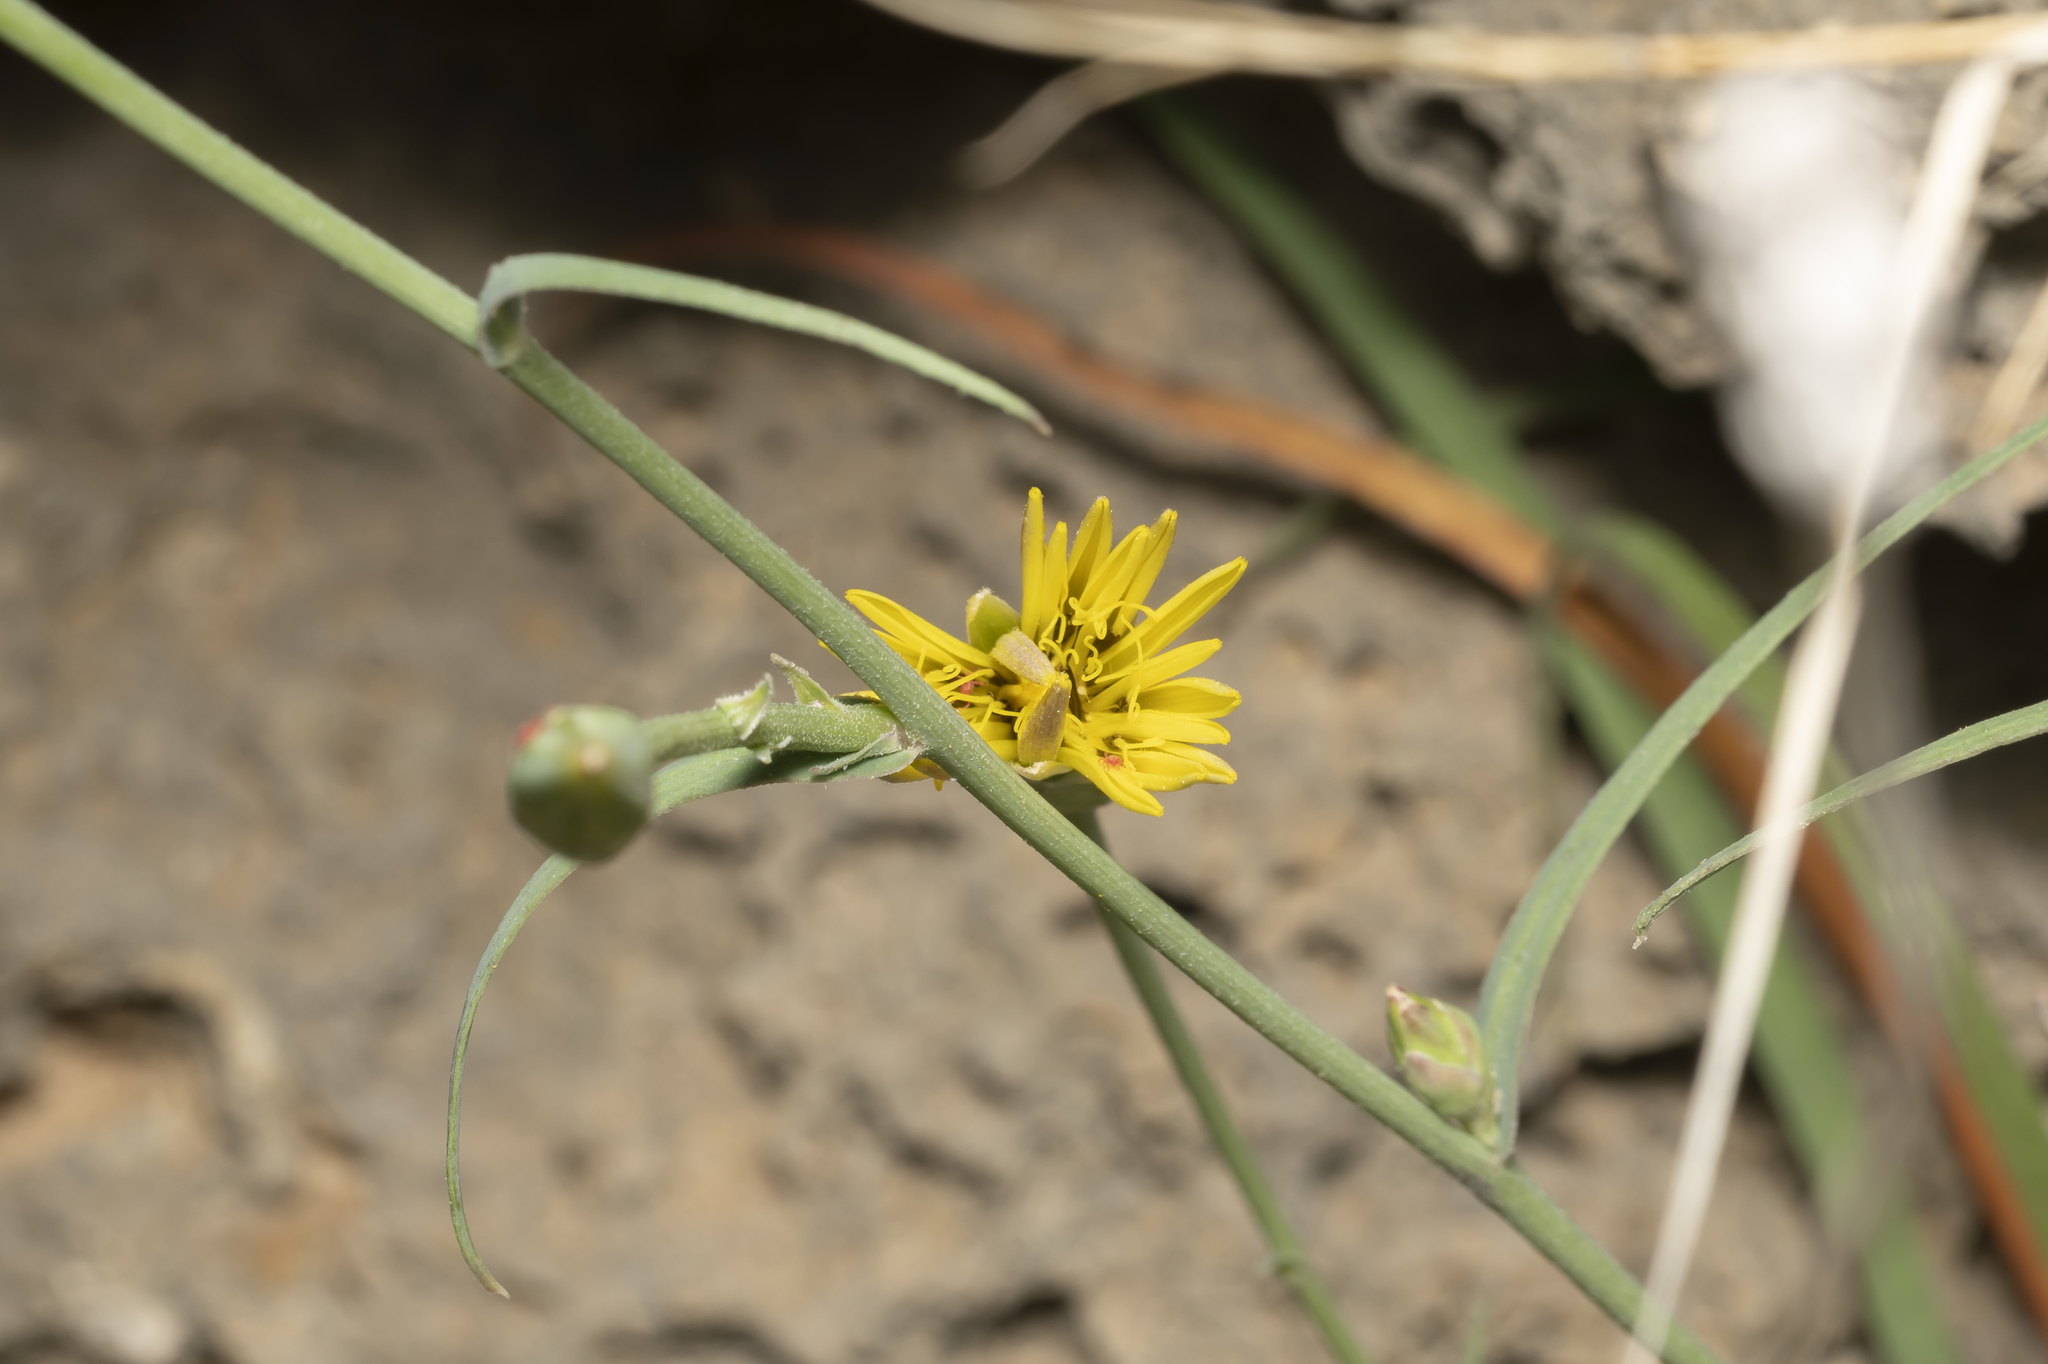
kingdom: Plantae
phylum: Tracheophyta
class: Magnoliopsida
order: Asterales
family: Asteraceae
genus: Candollea
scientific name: Candollea elata
